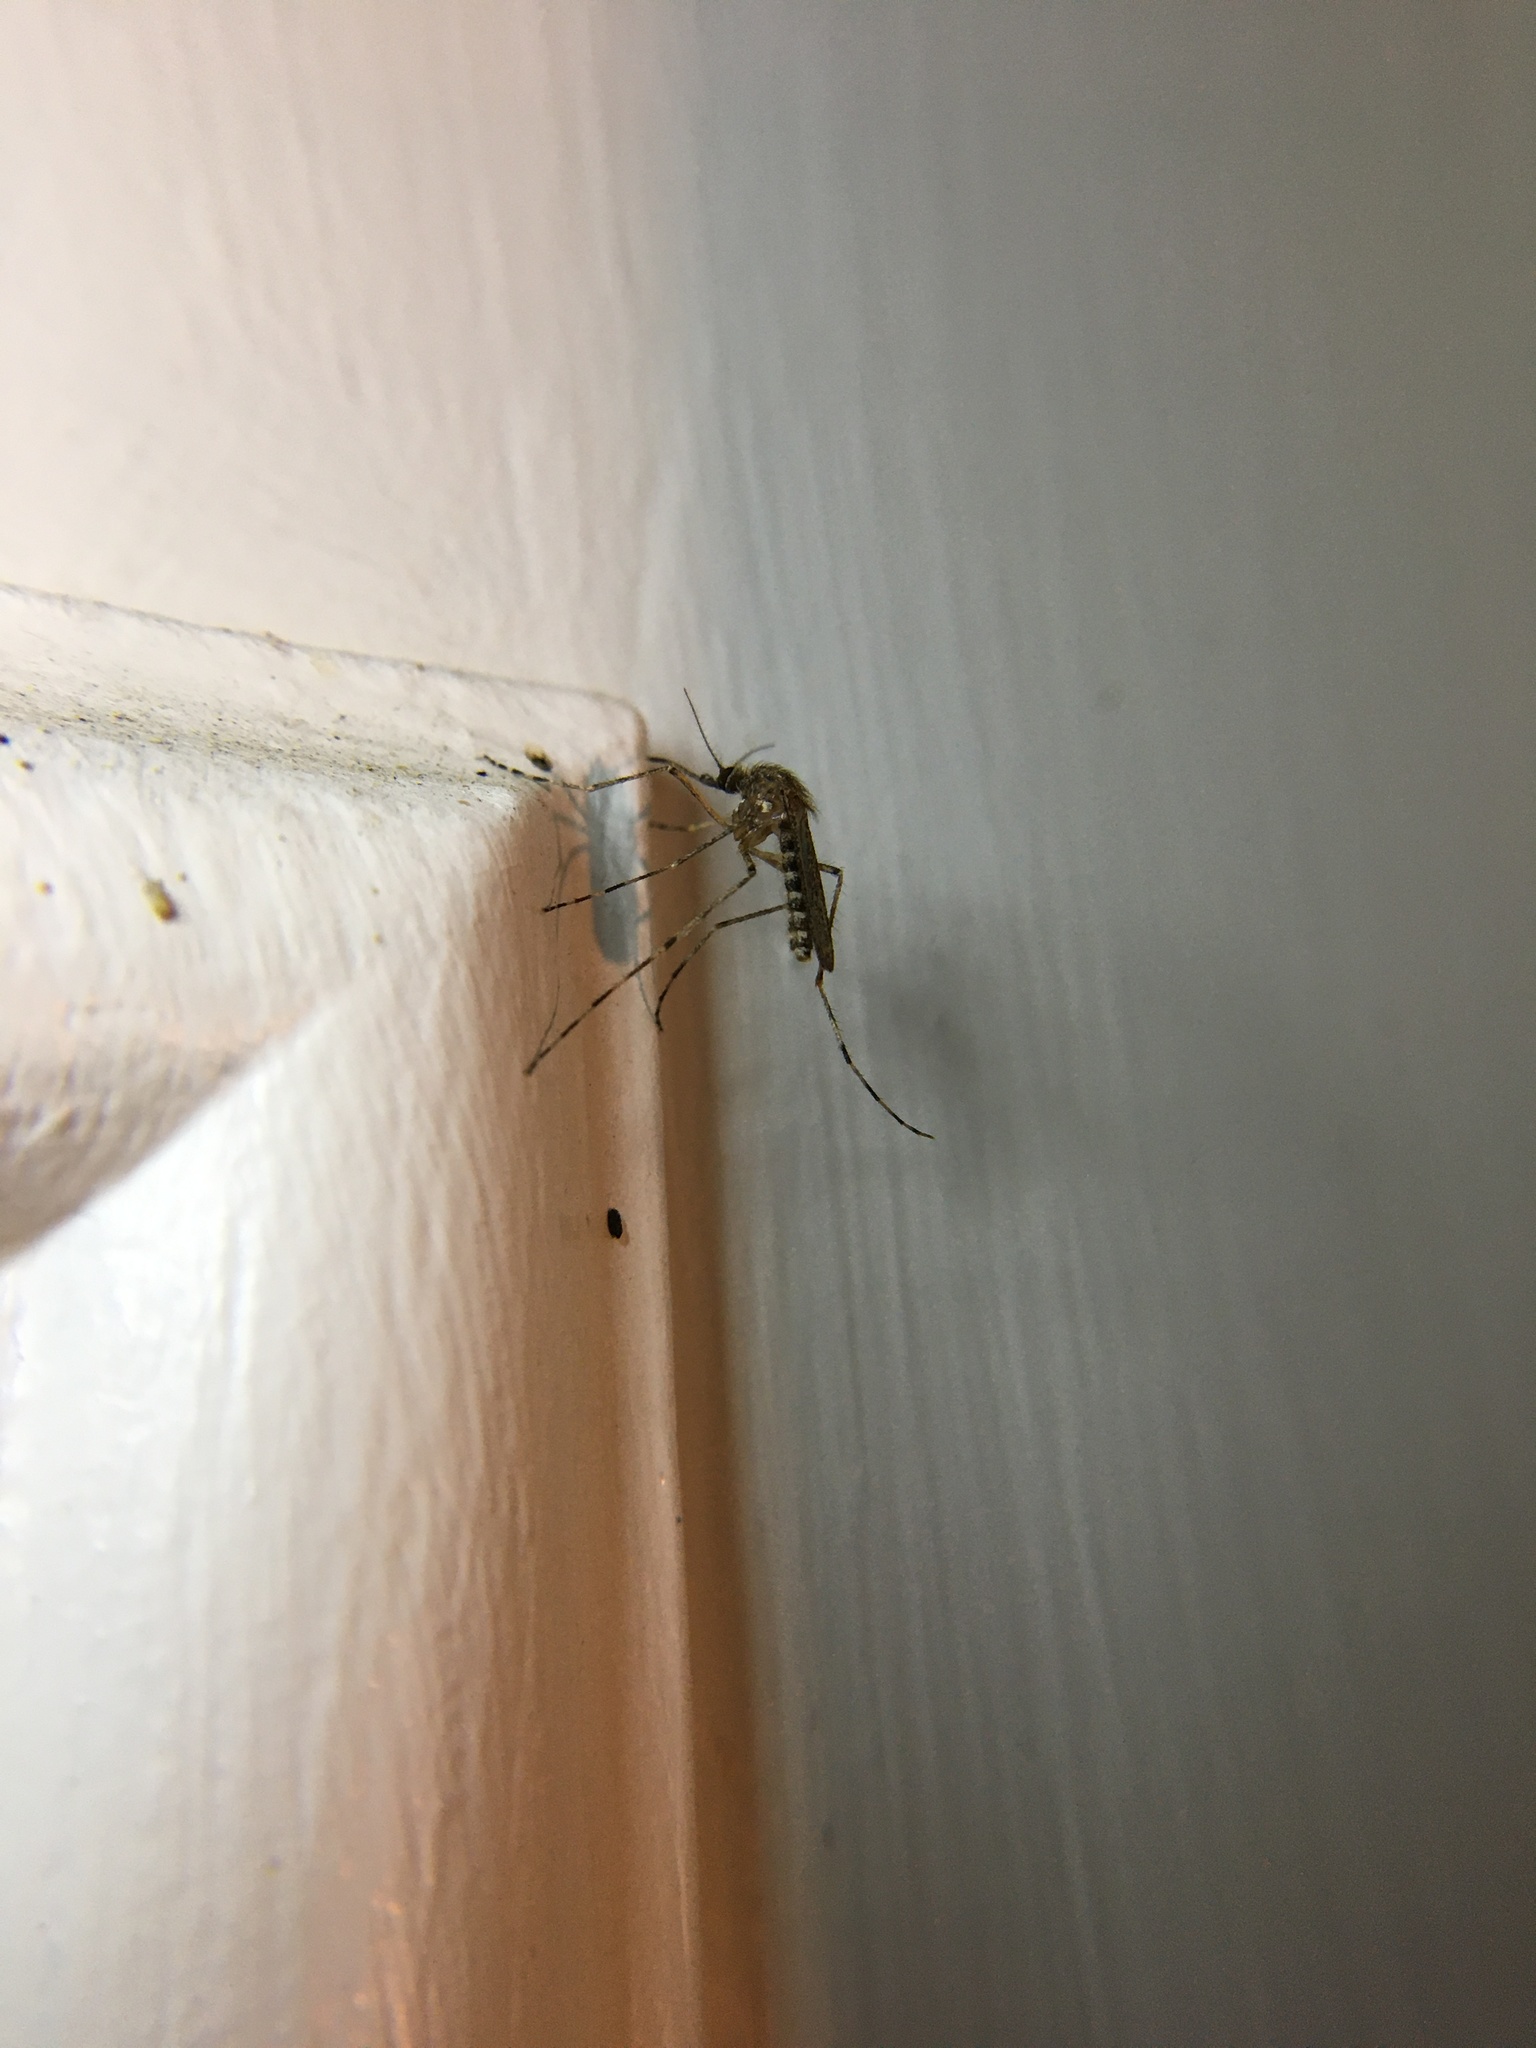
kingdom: Animalia
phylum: Arthropoda
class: Insecta
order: Diptera
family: Culicidae
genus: Coquillettidia
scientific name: Coquillettidia perturbans
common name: Cattail mosquito
